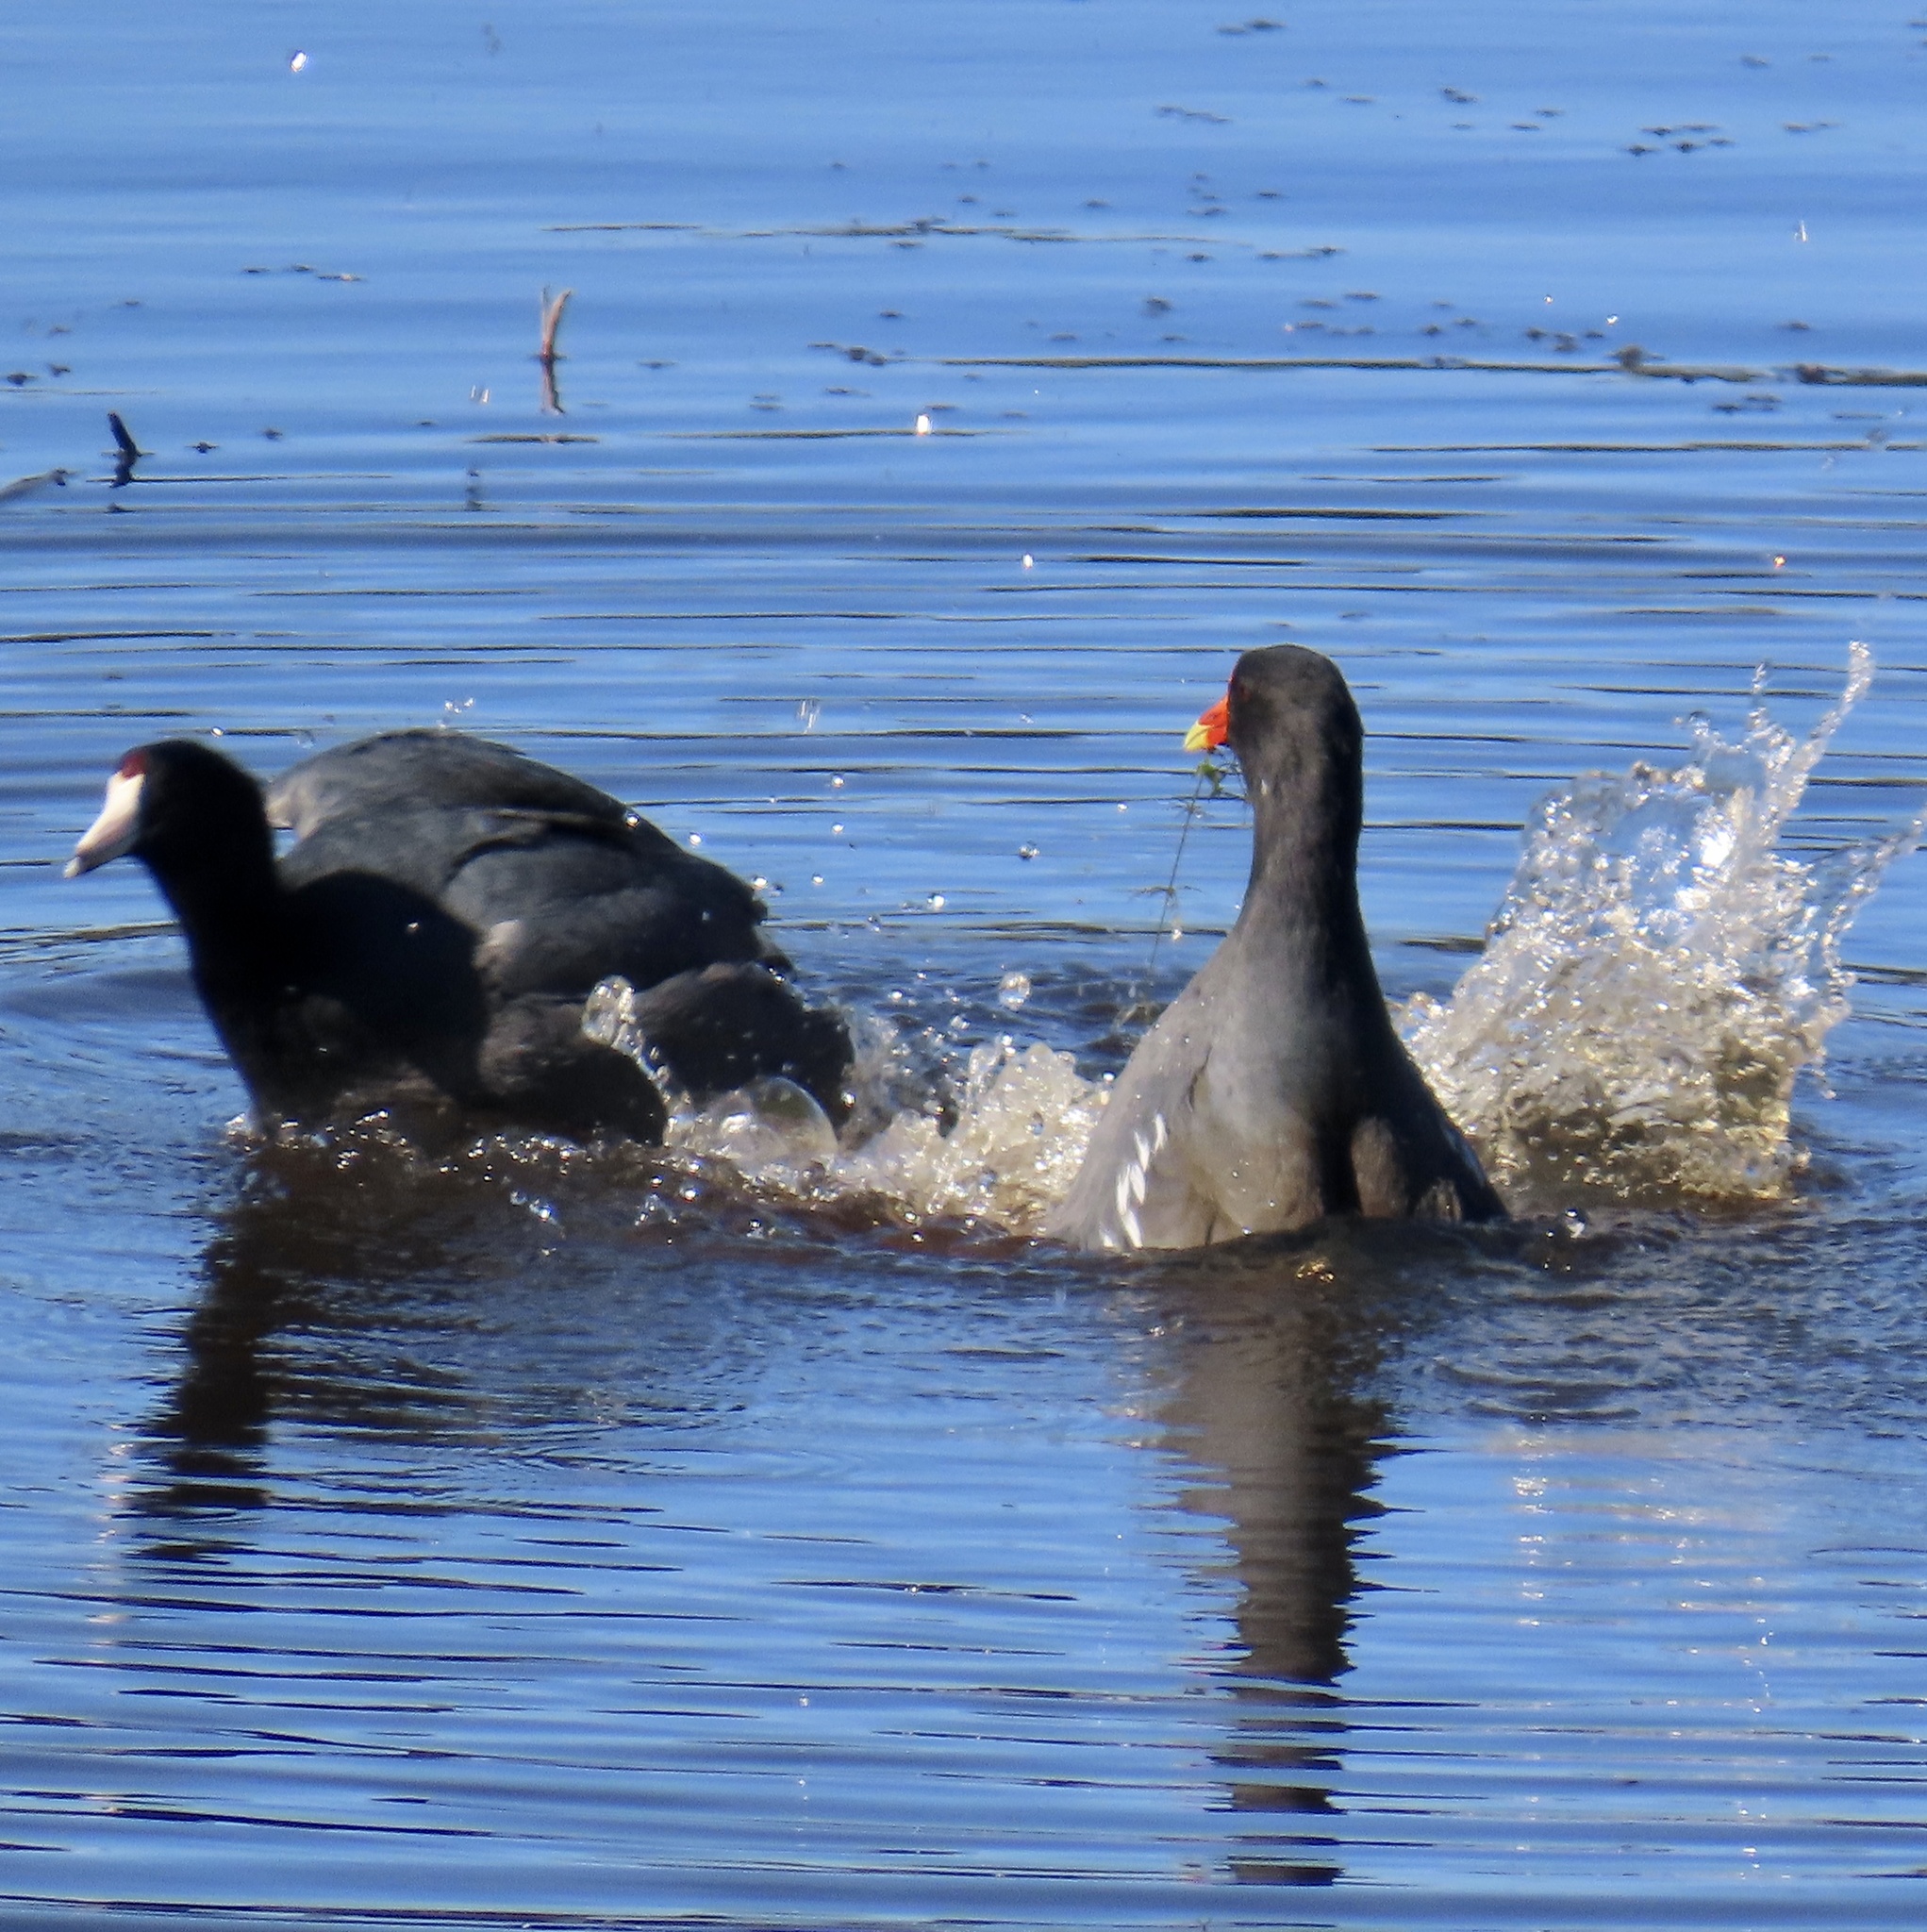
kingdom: Animalia
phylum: Chordata
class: Aves
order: Gruiformes
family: Rallidae
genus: Gallinula
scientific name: Gallinula chloropus
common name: Common moorhen
